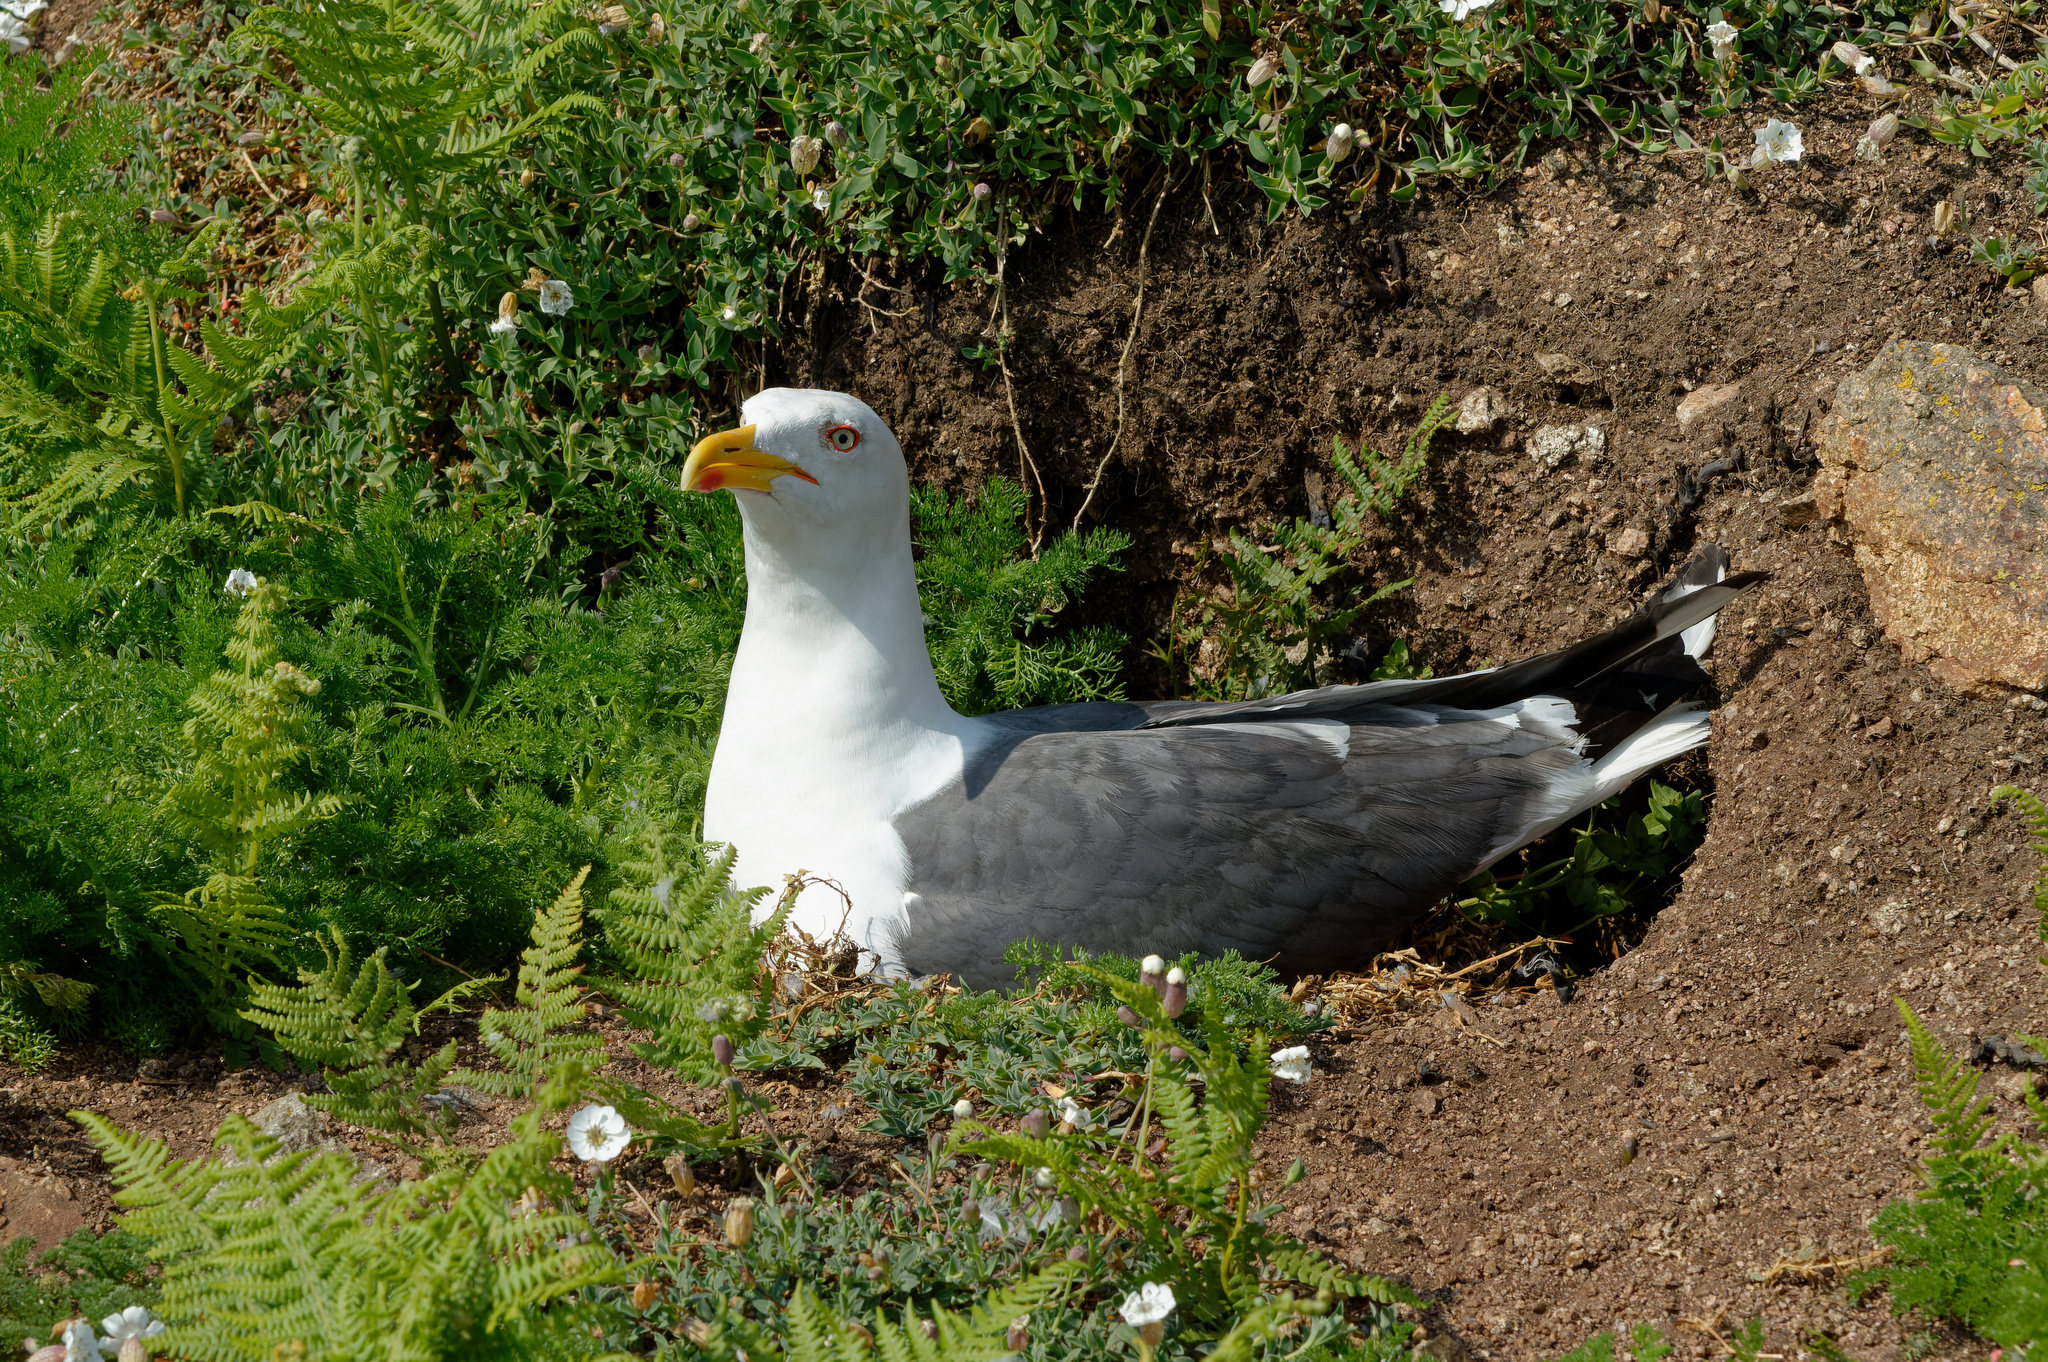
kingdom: Animalia
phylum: Chordata
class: Aves
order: Charadriiformes
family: Laridae
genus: Larus
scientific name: Larus fuscus
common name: Lesser black-backed gull
